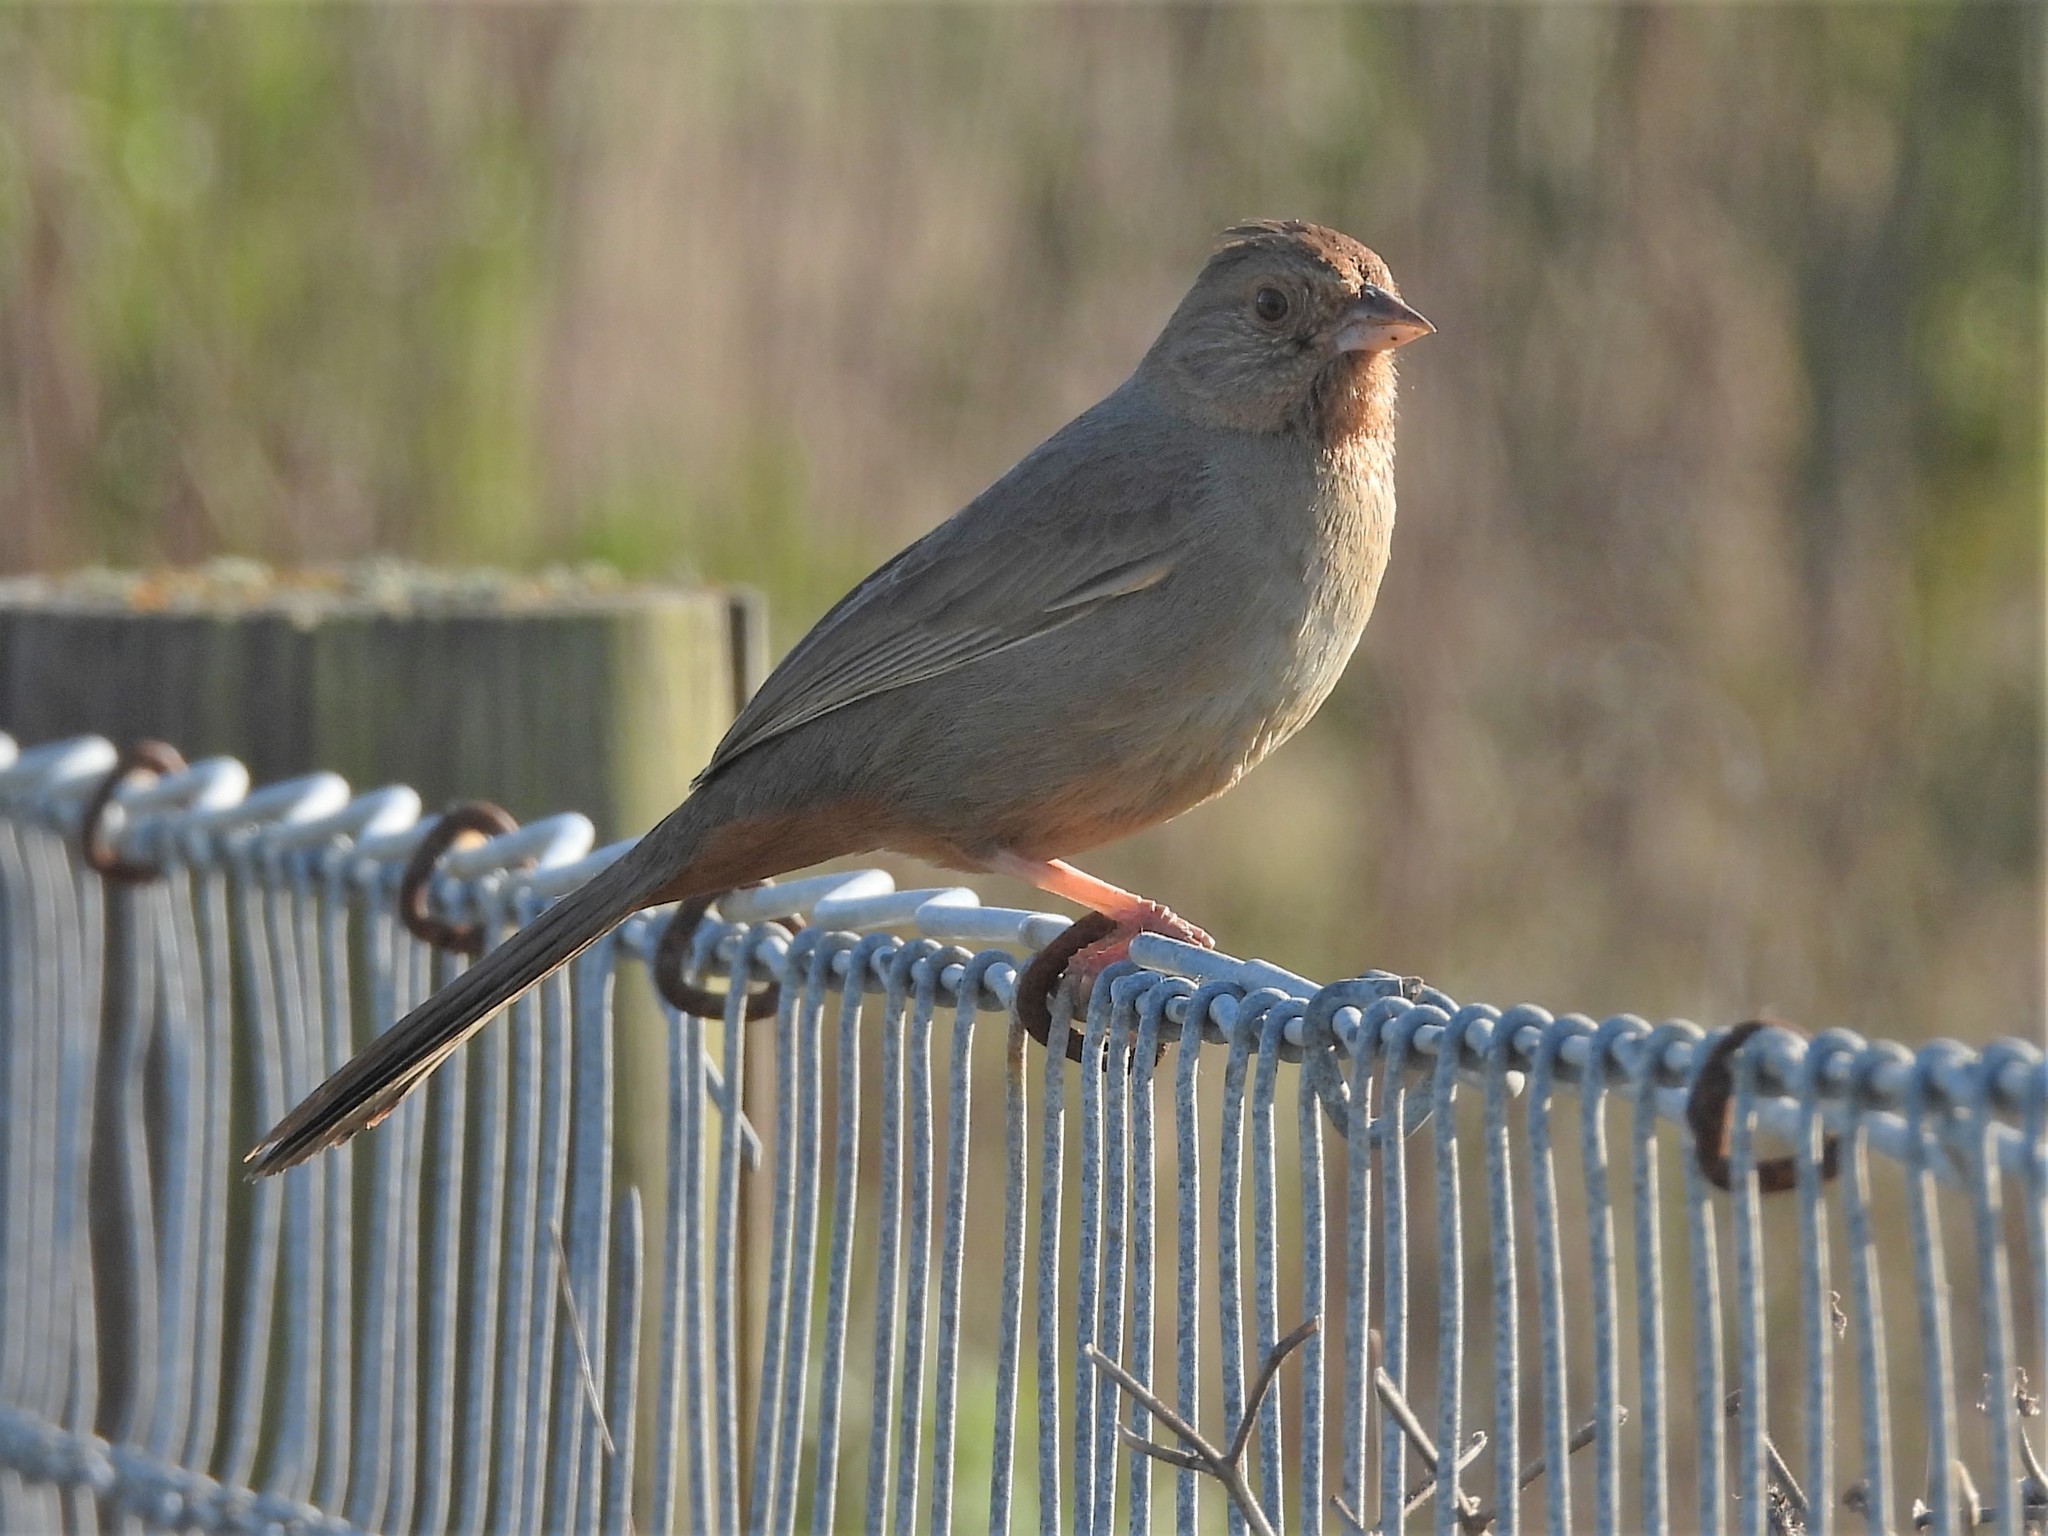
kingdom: Animalia
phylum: Chordata
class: Aves
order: Passeriformes
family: Passerellidae
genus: Melozone
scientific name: Melozone crissalis
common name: California towhee
